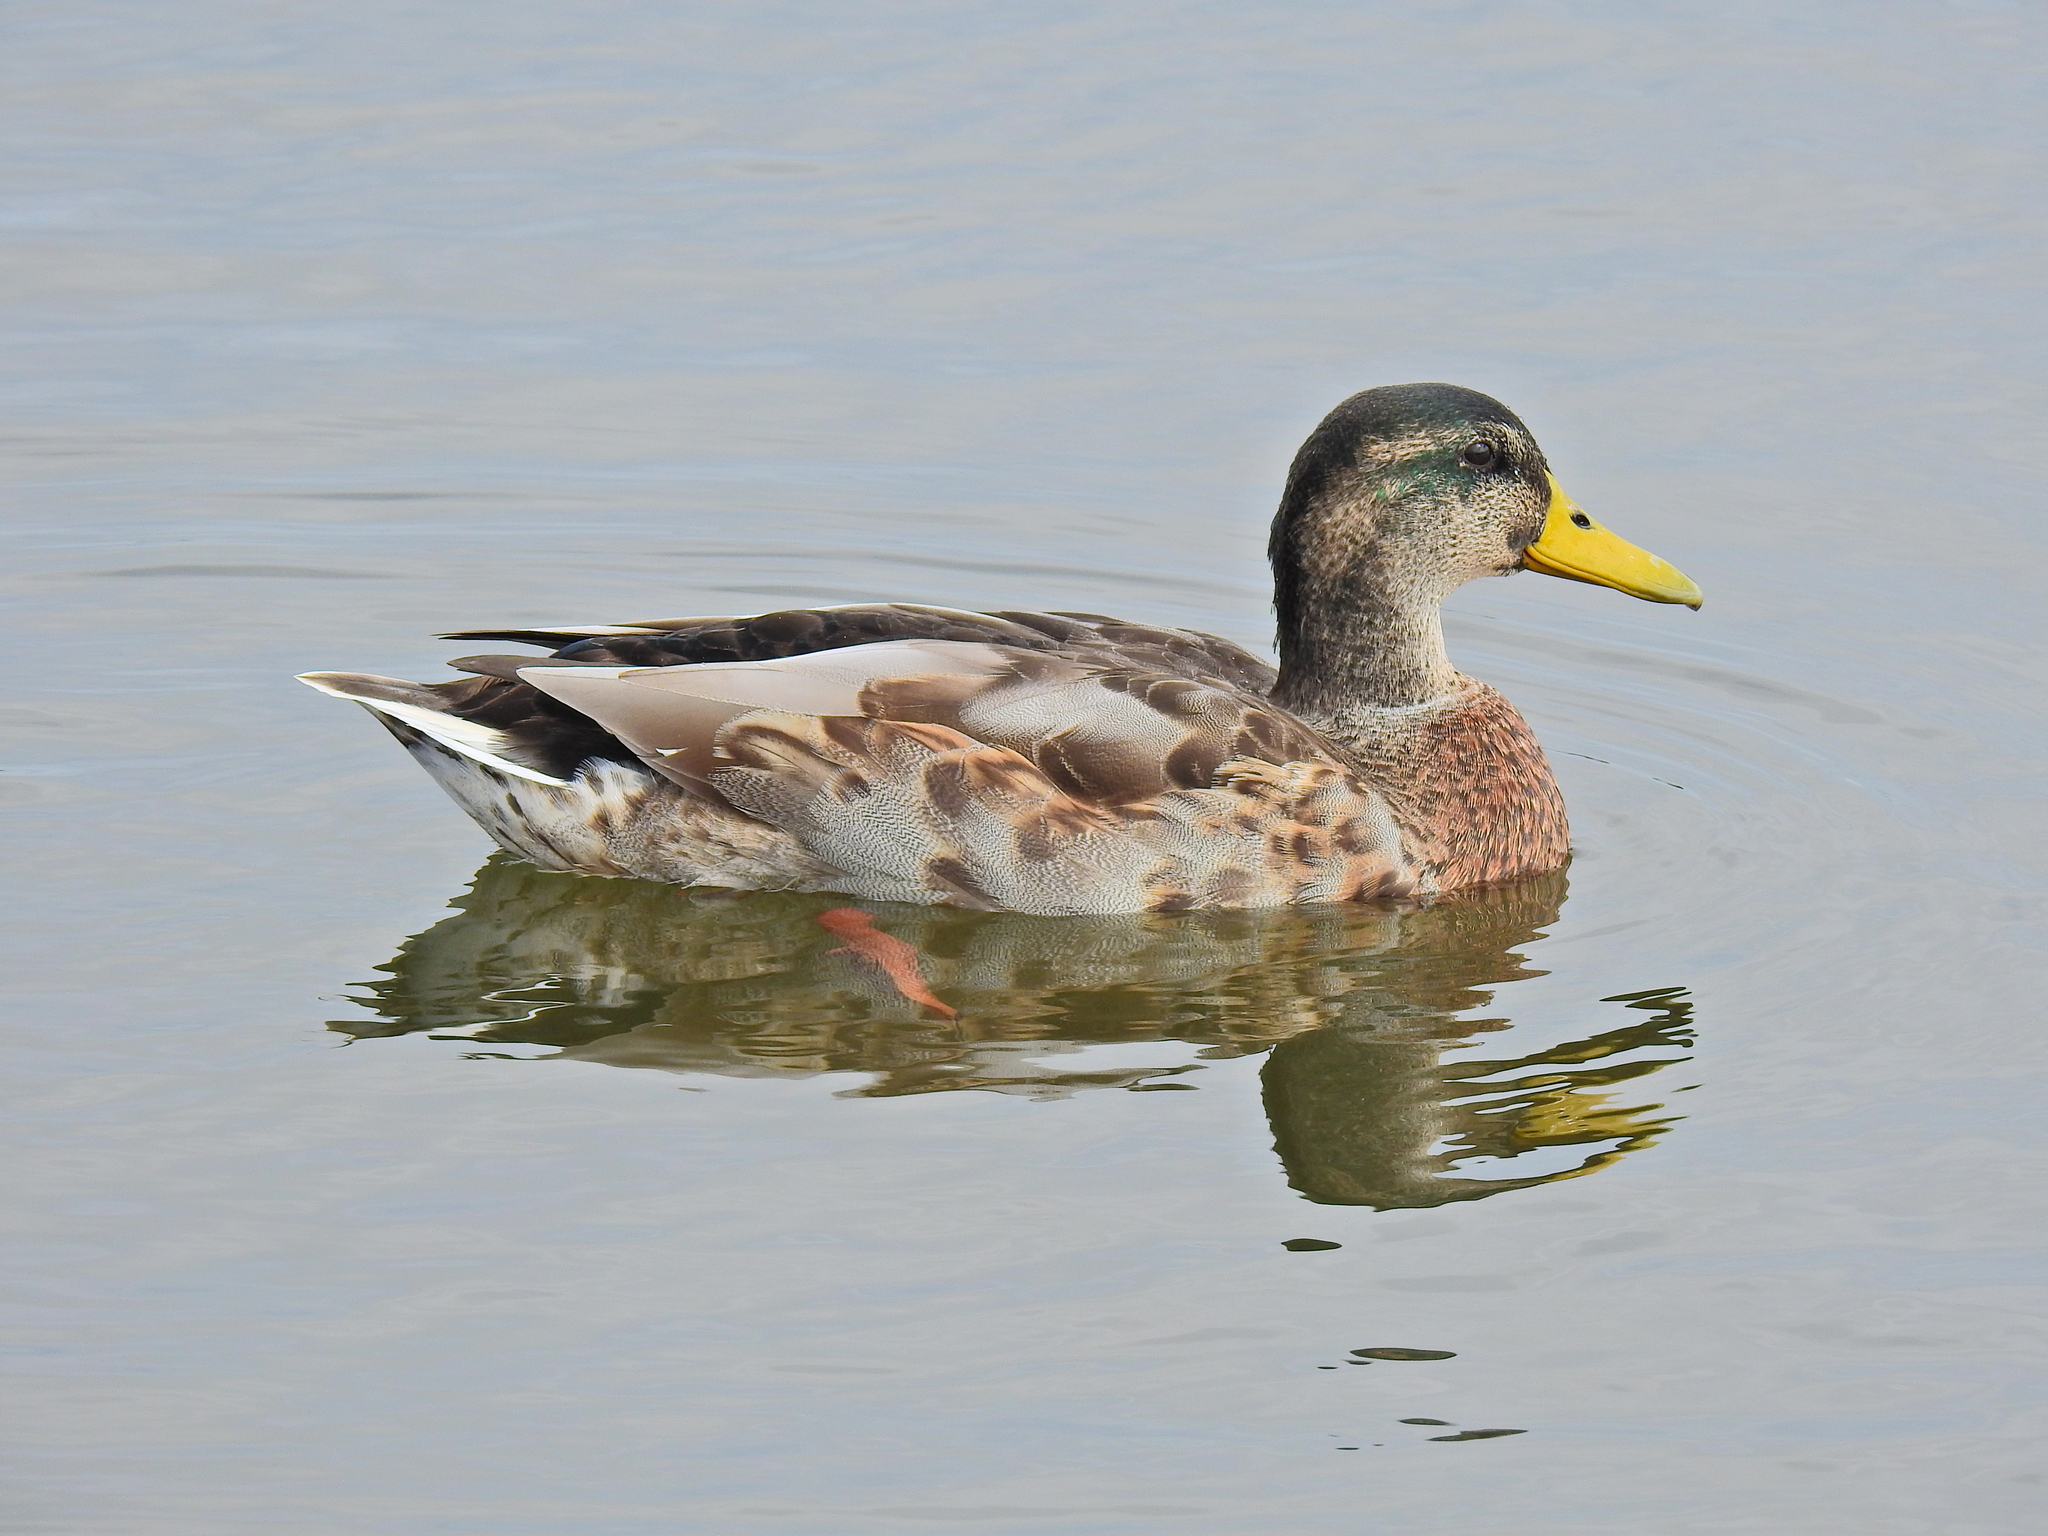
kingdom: Animalia
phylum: Chordata
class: Aves
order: Anseriformes
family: Anatidae
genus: Anas
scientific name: Anas platyrhynchos
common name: Mallard
